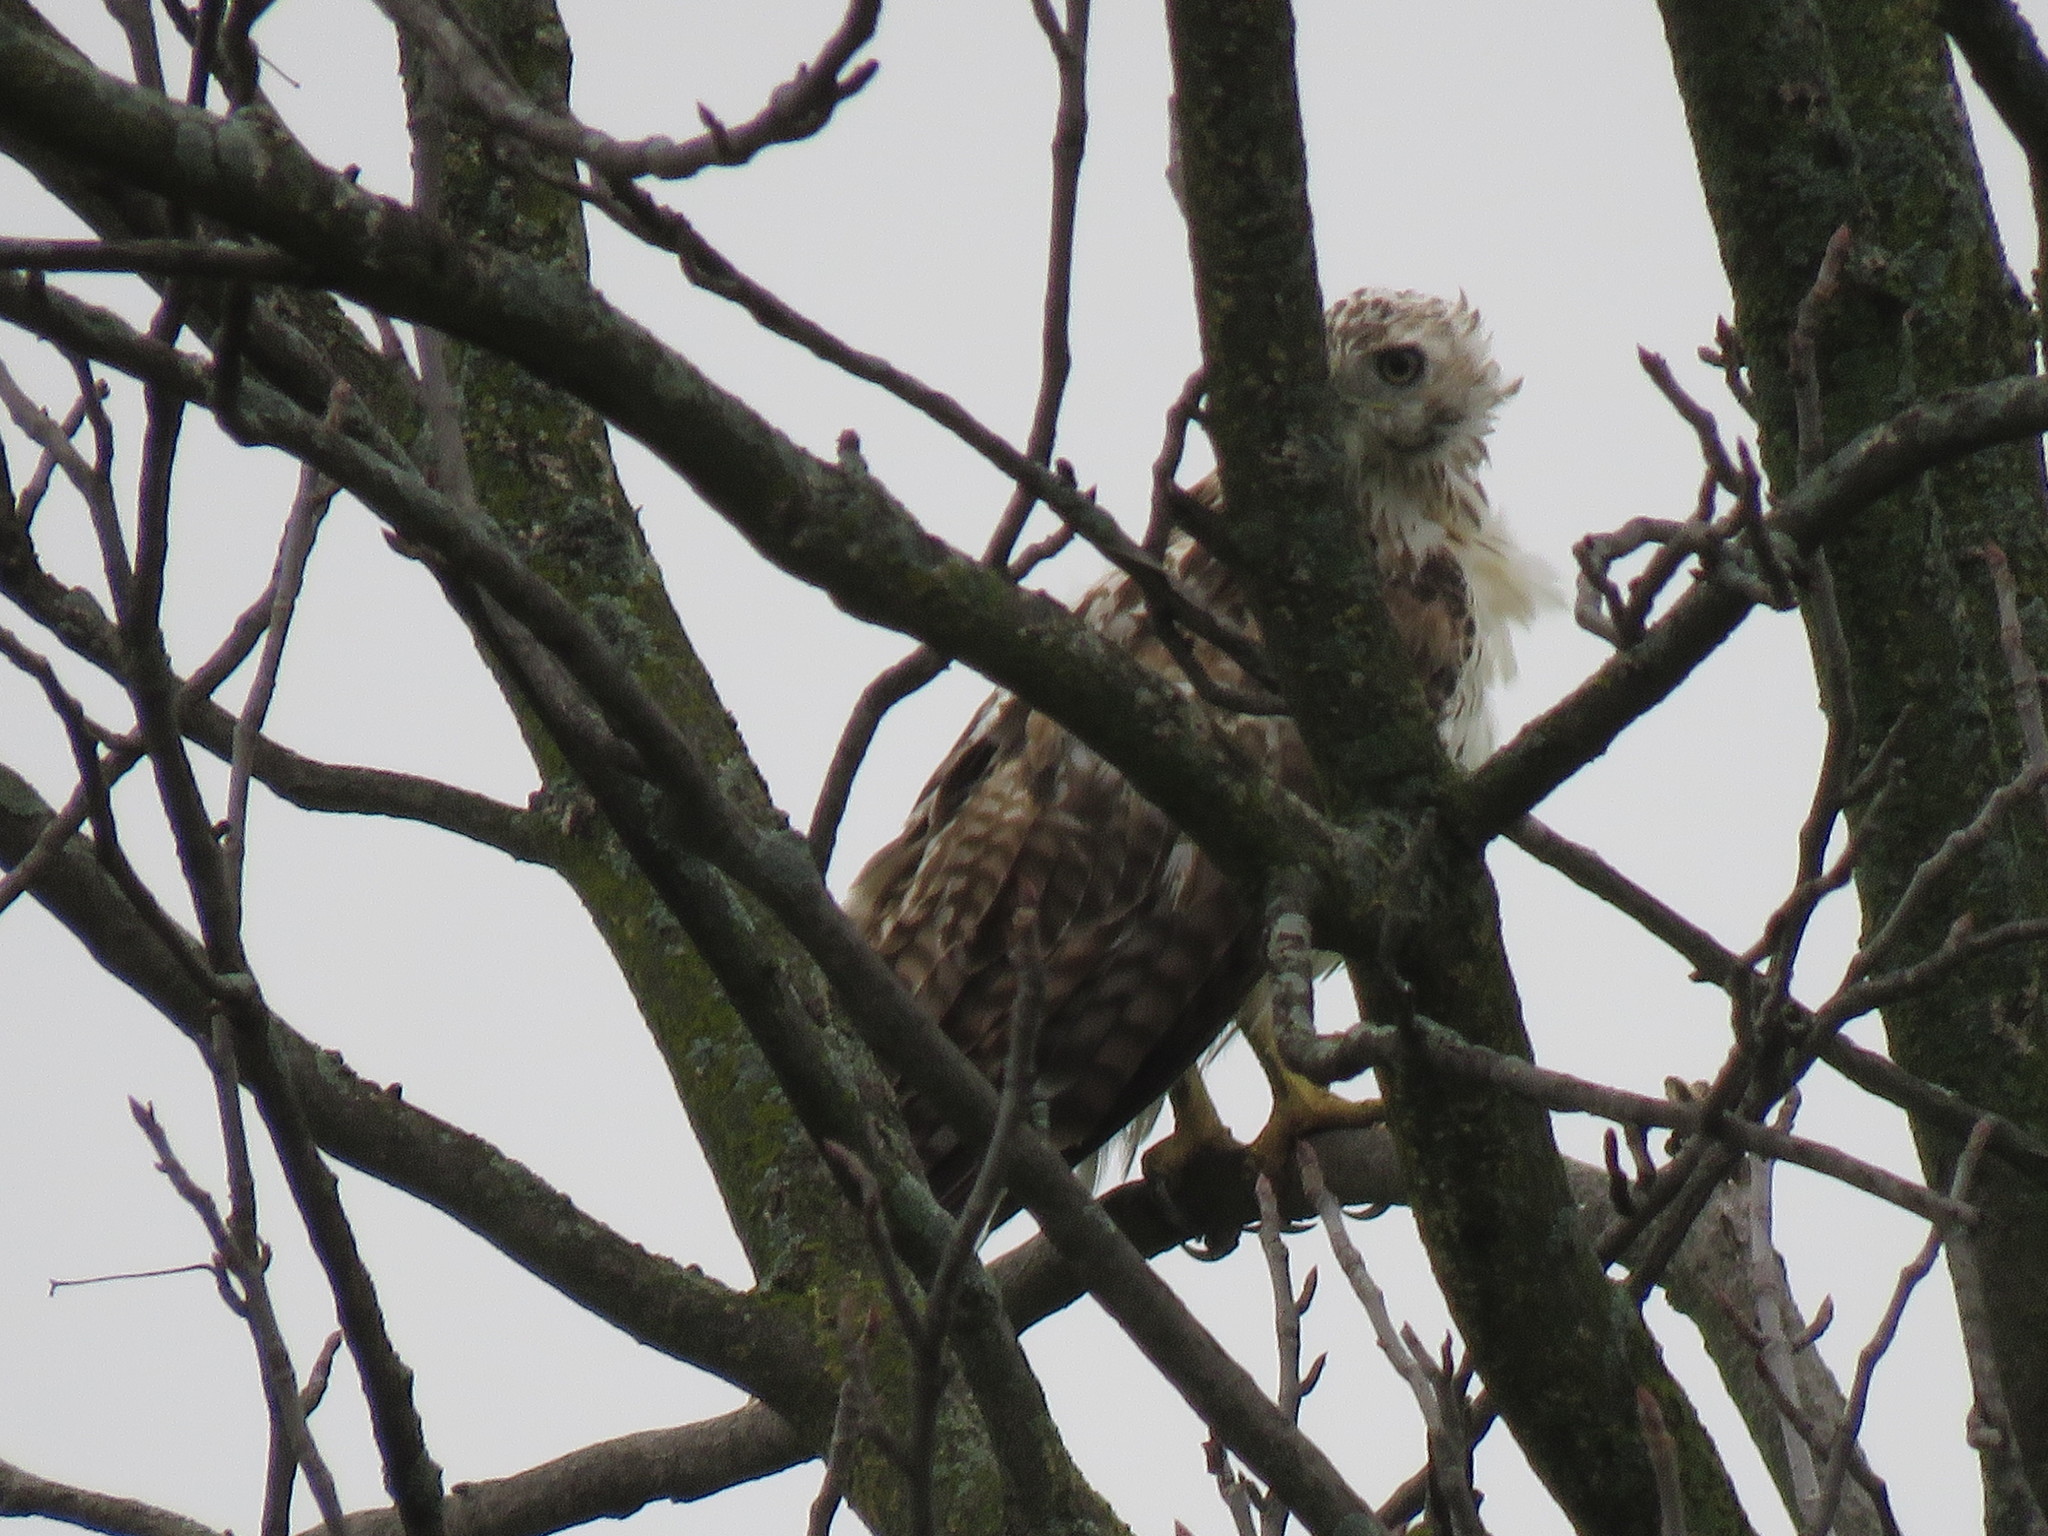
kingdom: Animalia
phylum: Chordata
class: Aves
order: Accipitriformes
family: Accipitridae
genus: Buteo
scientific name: Buteo jamaicensis
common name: Red-tailed hawk
